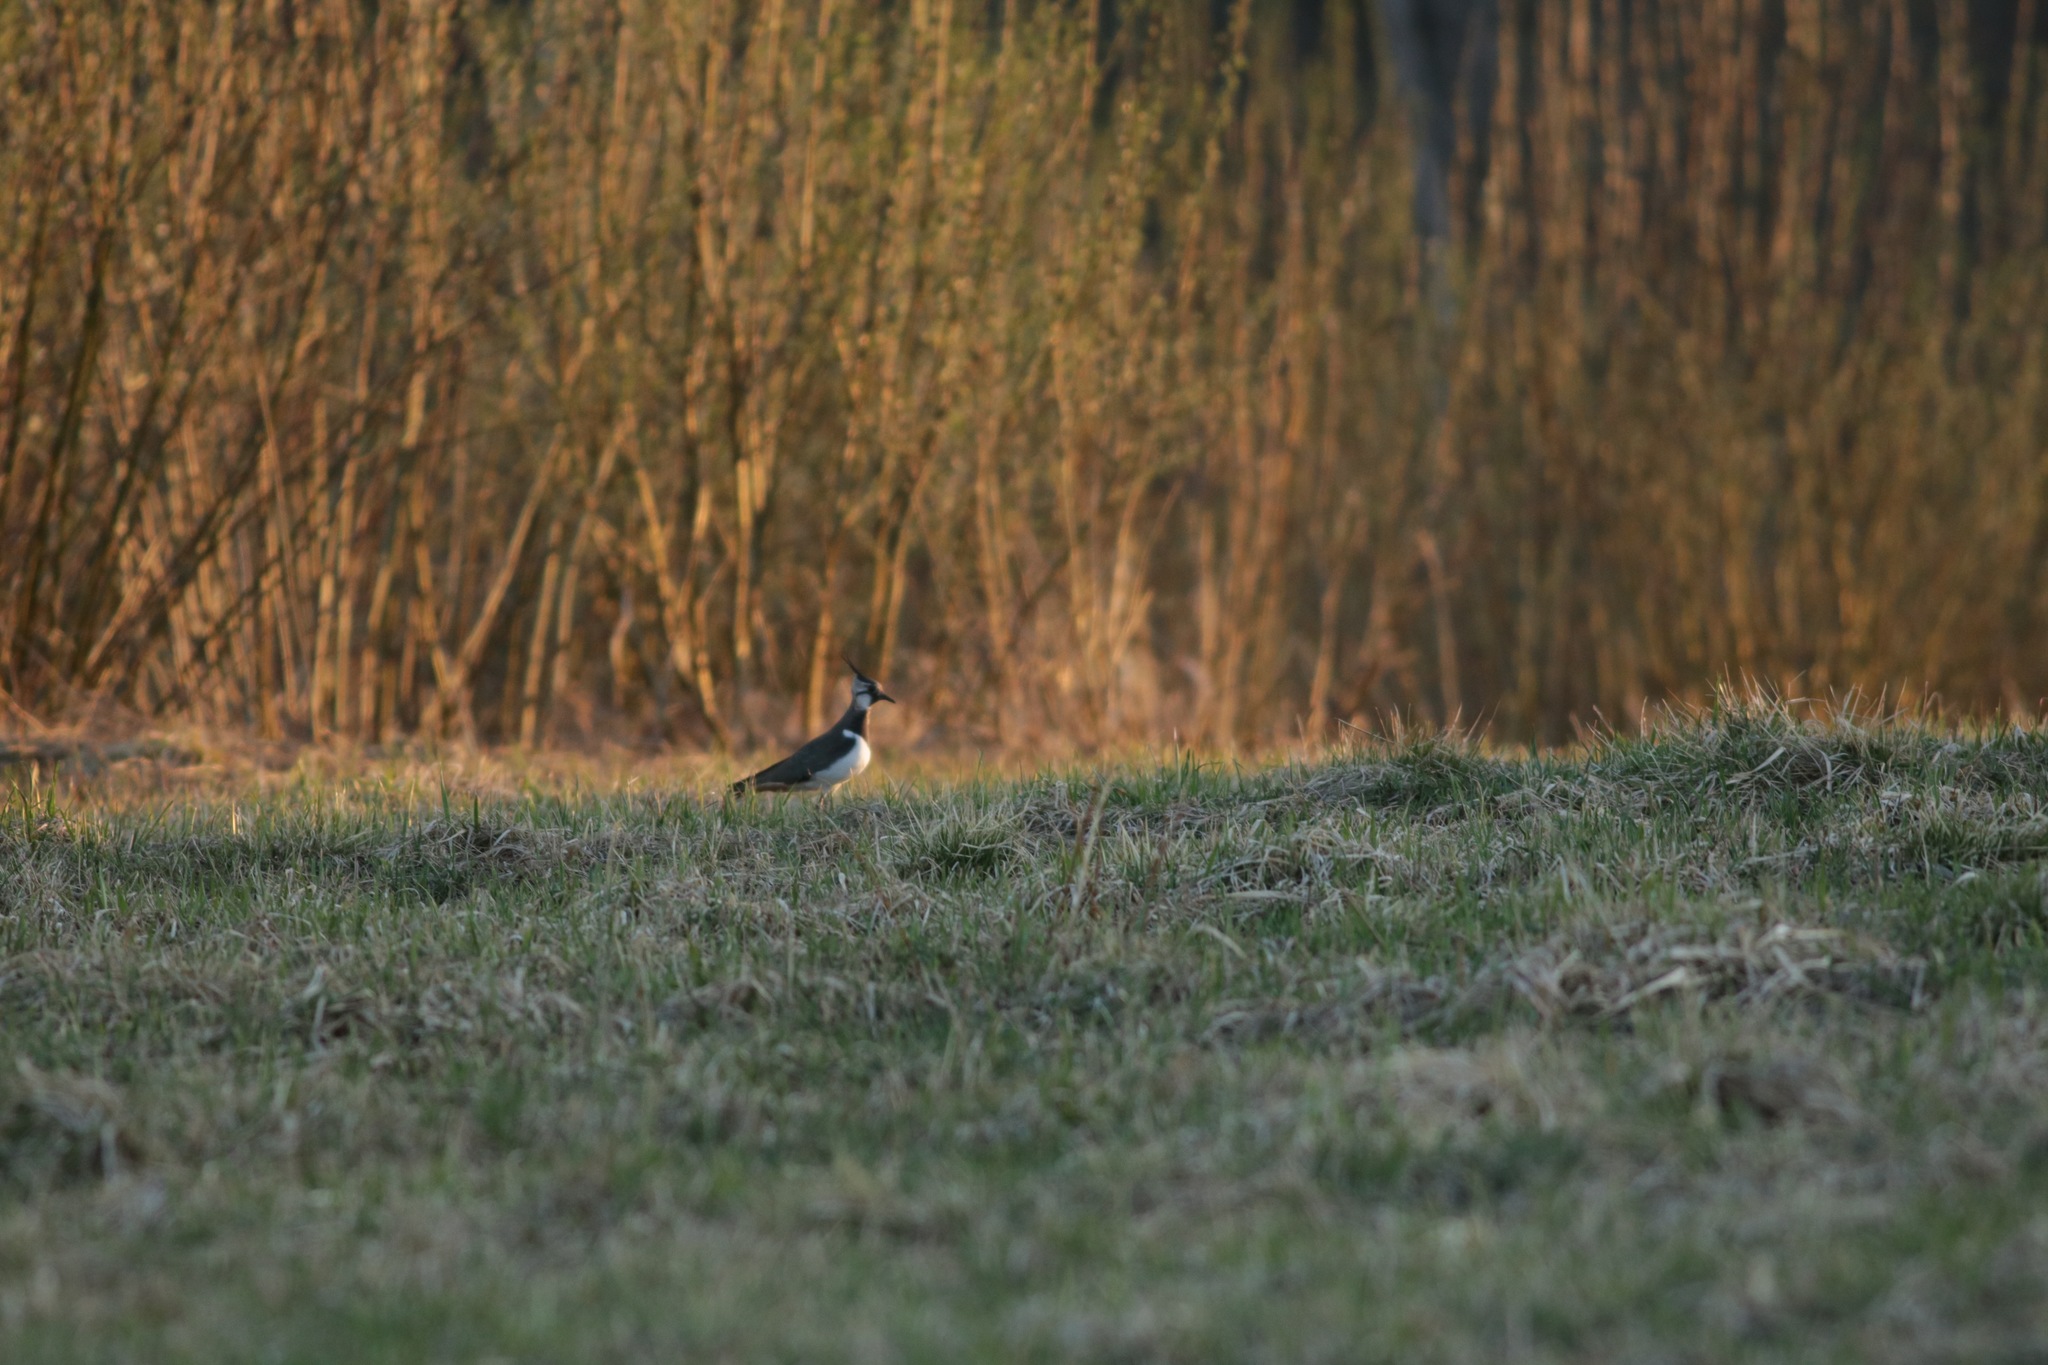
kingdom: Animalia
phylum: Chordata
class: Aves
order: Charadriiformes
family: Charadriidae
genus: Vanellus
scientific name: Vanellus vanellus
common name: Northern lapwing
